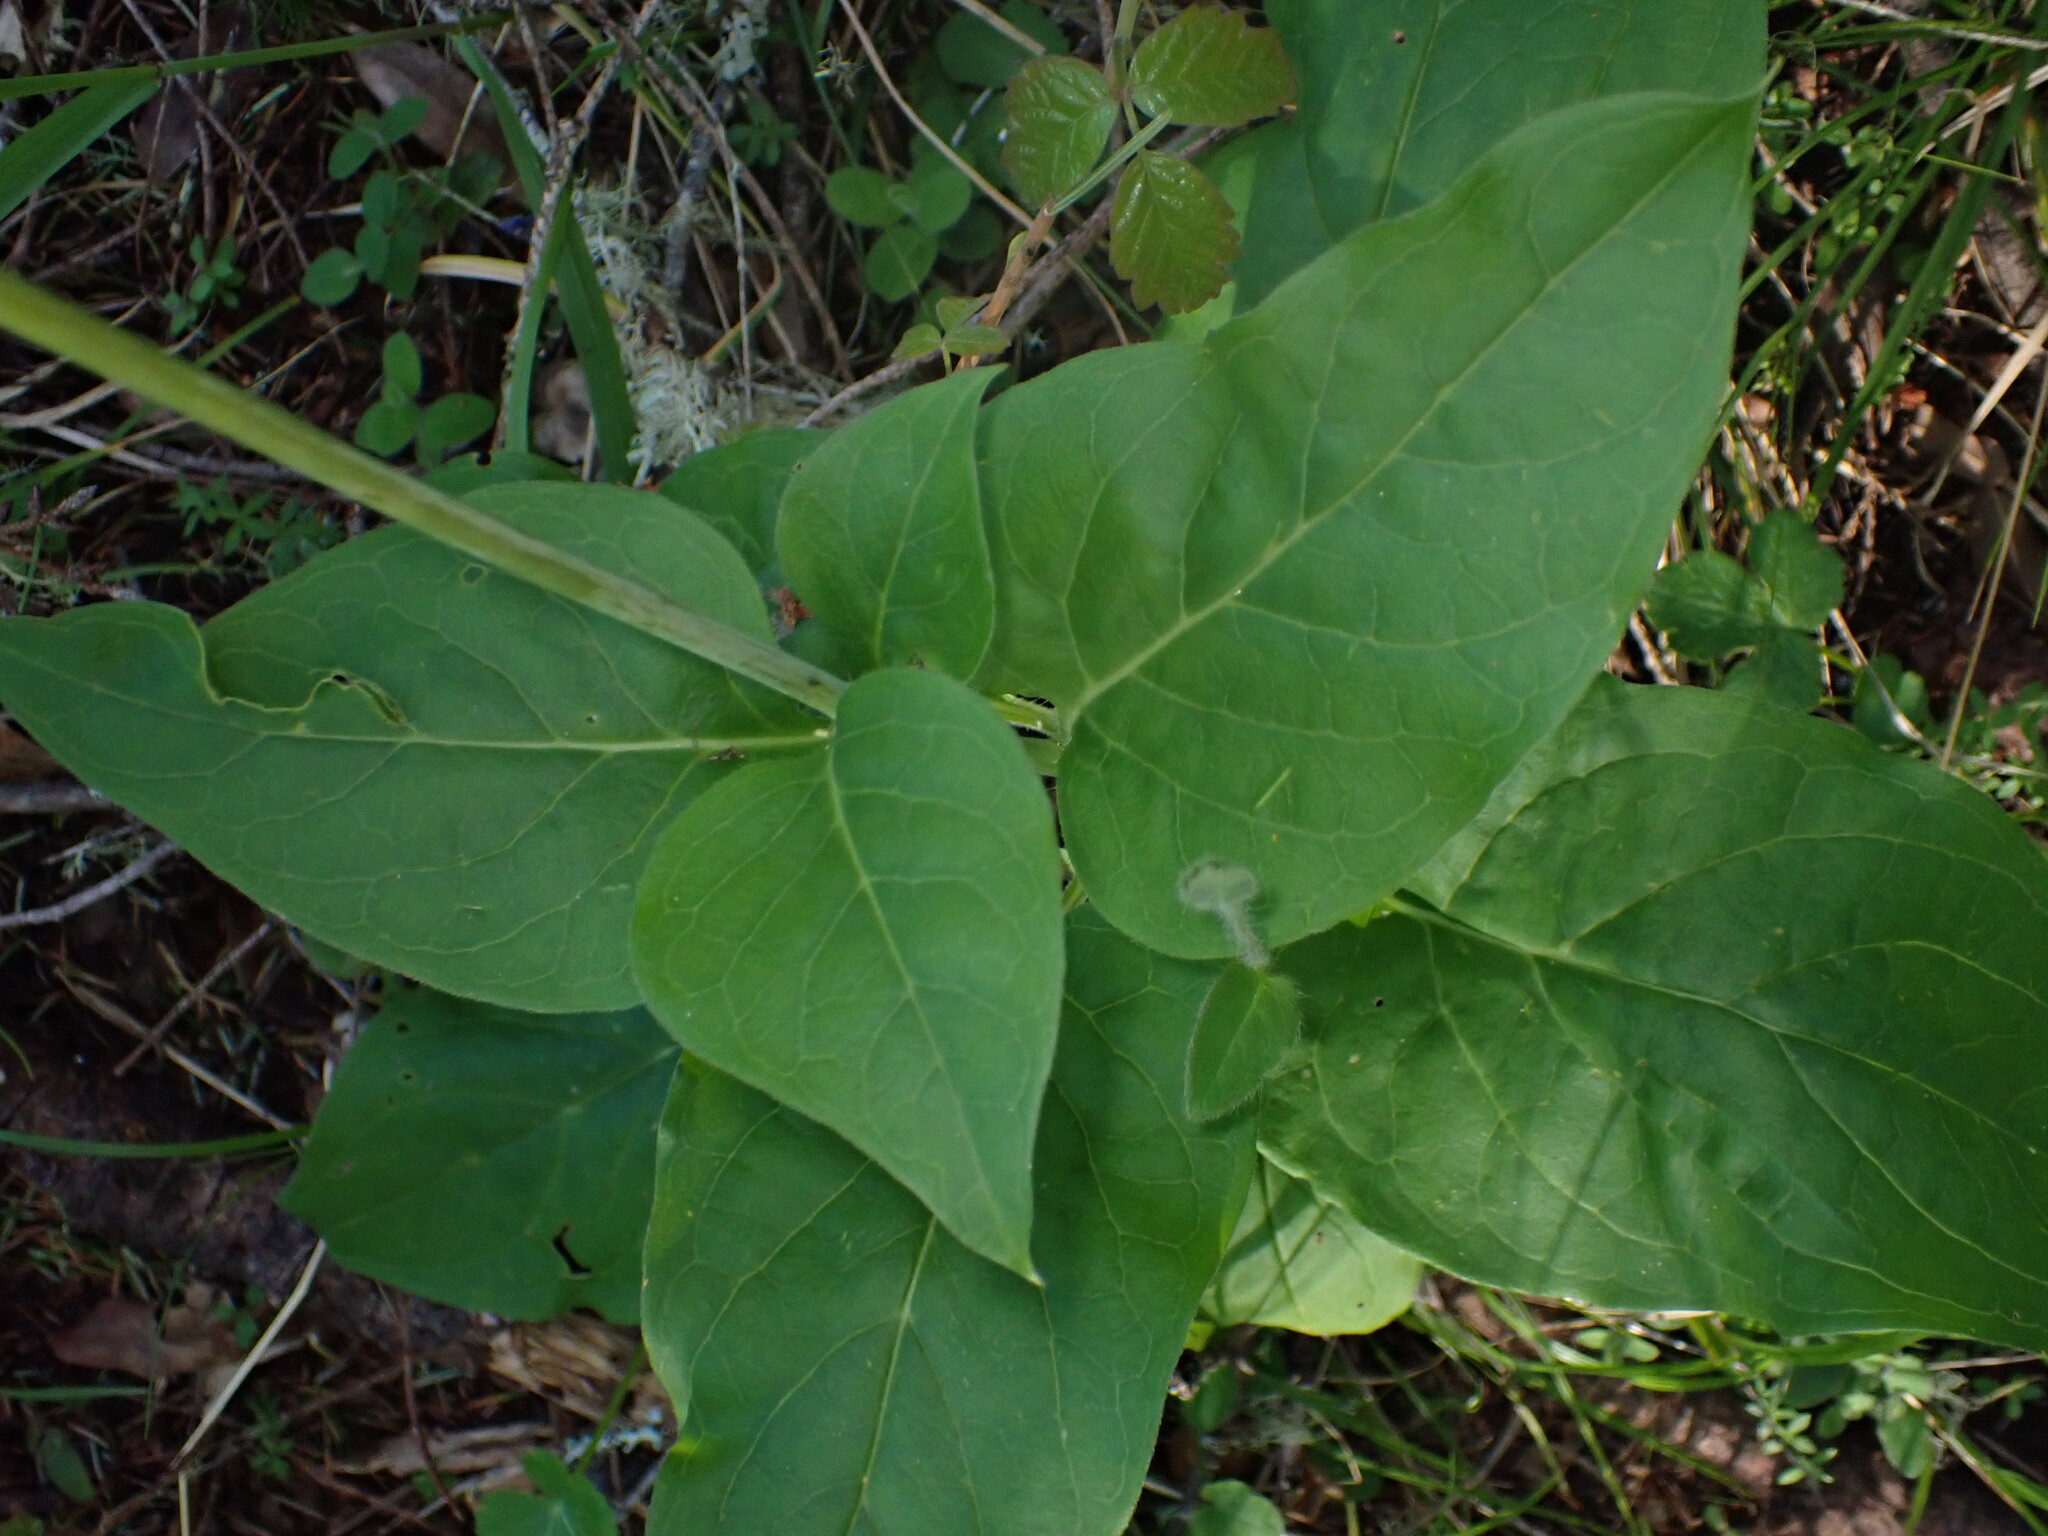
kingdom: Plantae
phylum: Tracheophyta
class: Magnoliopsida
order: Boraginales
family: Boraginaceae
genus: Adelinia
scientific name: Adelinia grande
